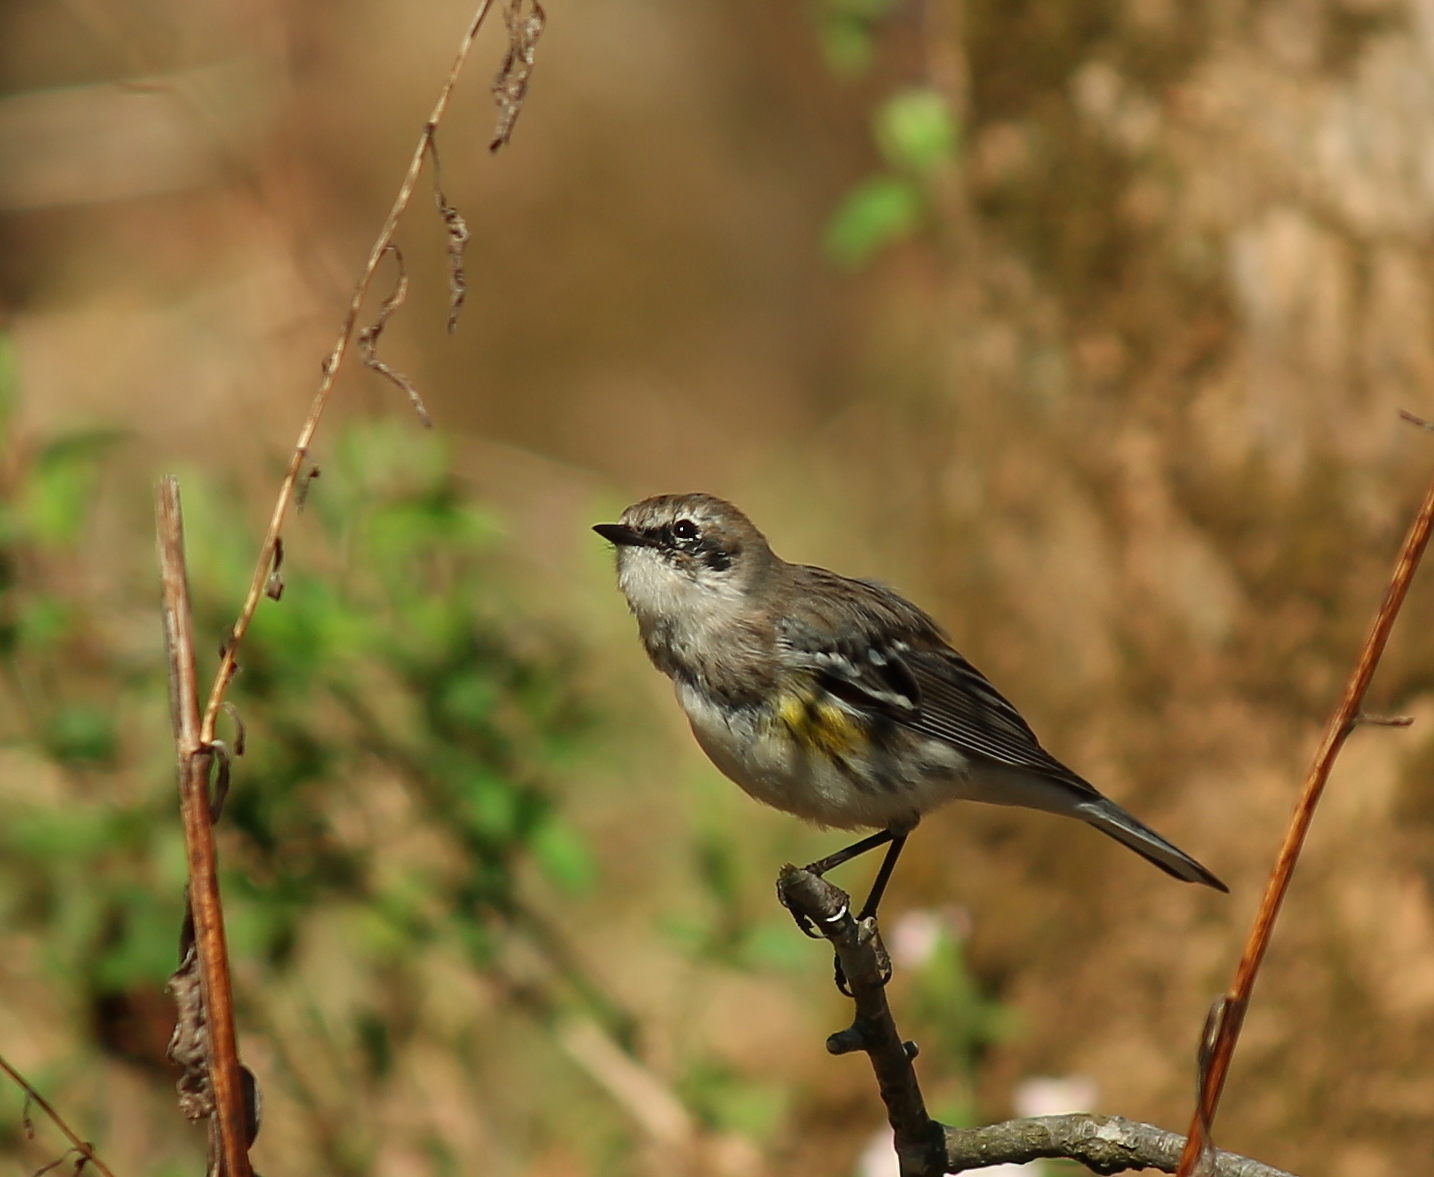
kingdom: Animalia
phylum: Chordata
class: Aves
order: Passeriformes
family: Parulidae
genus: Setophaga
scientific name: Setophaga coronata
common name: Myrtle warbler
